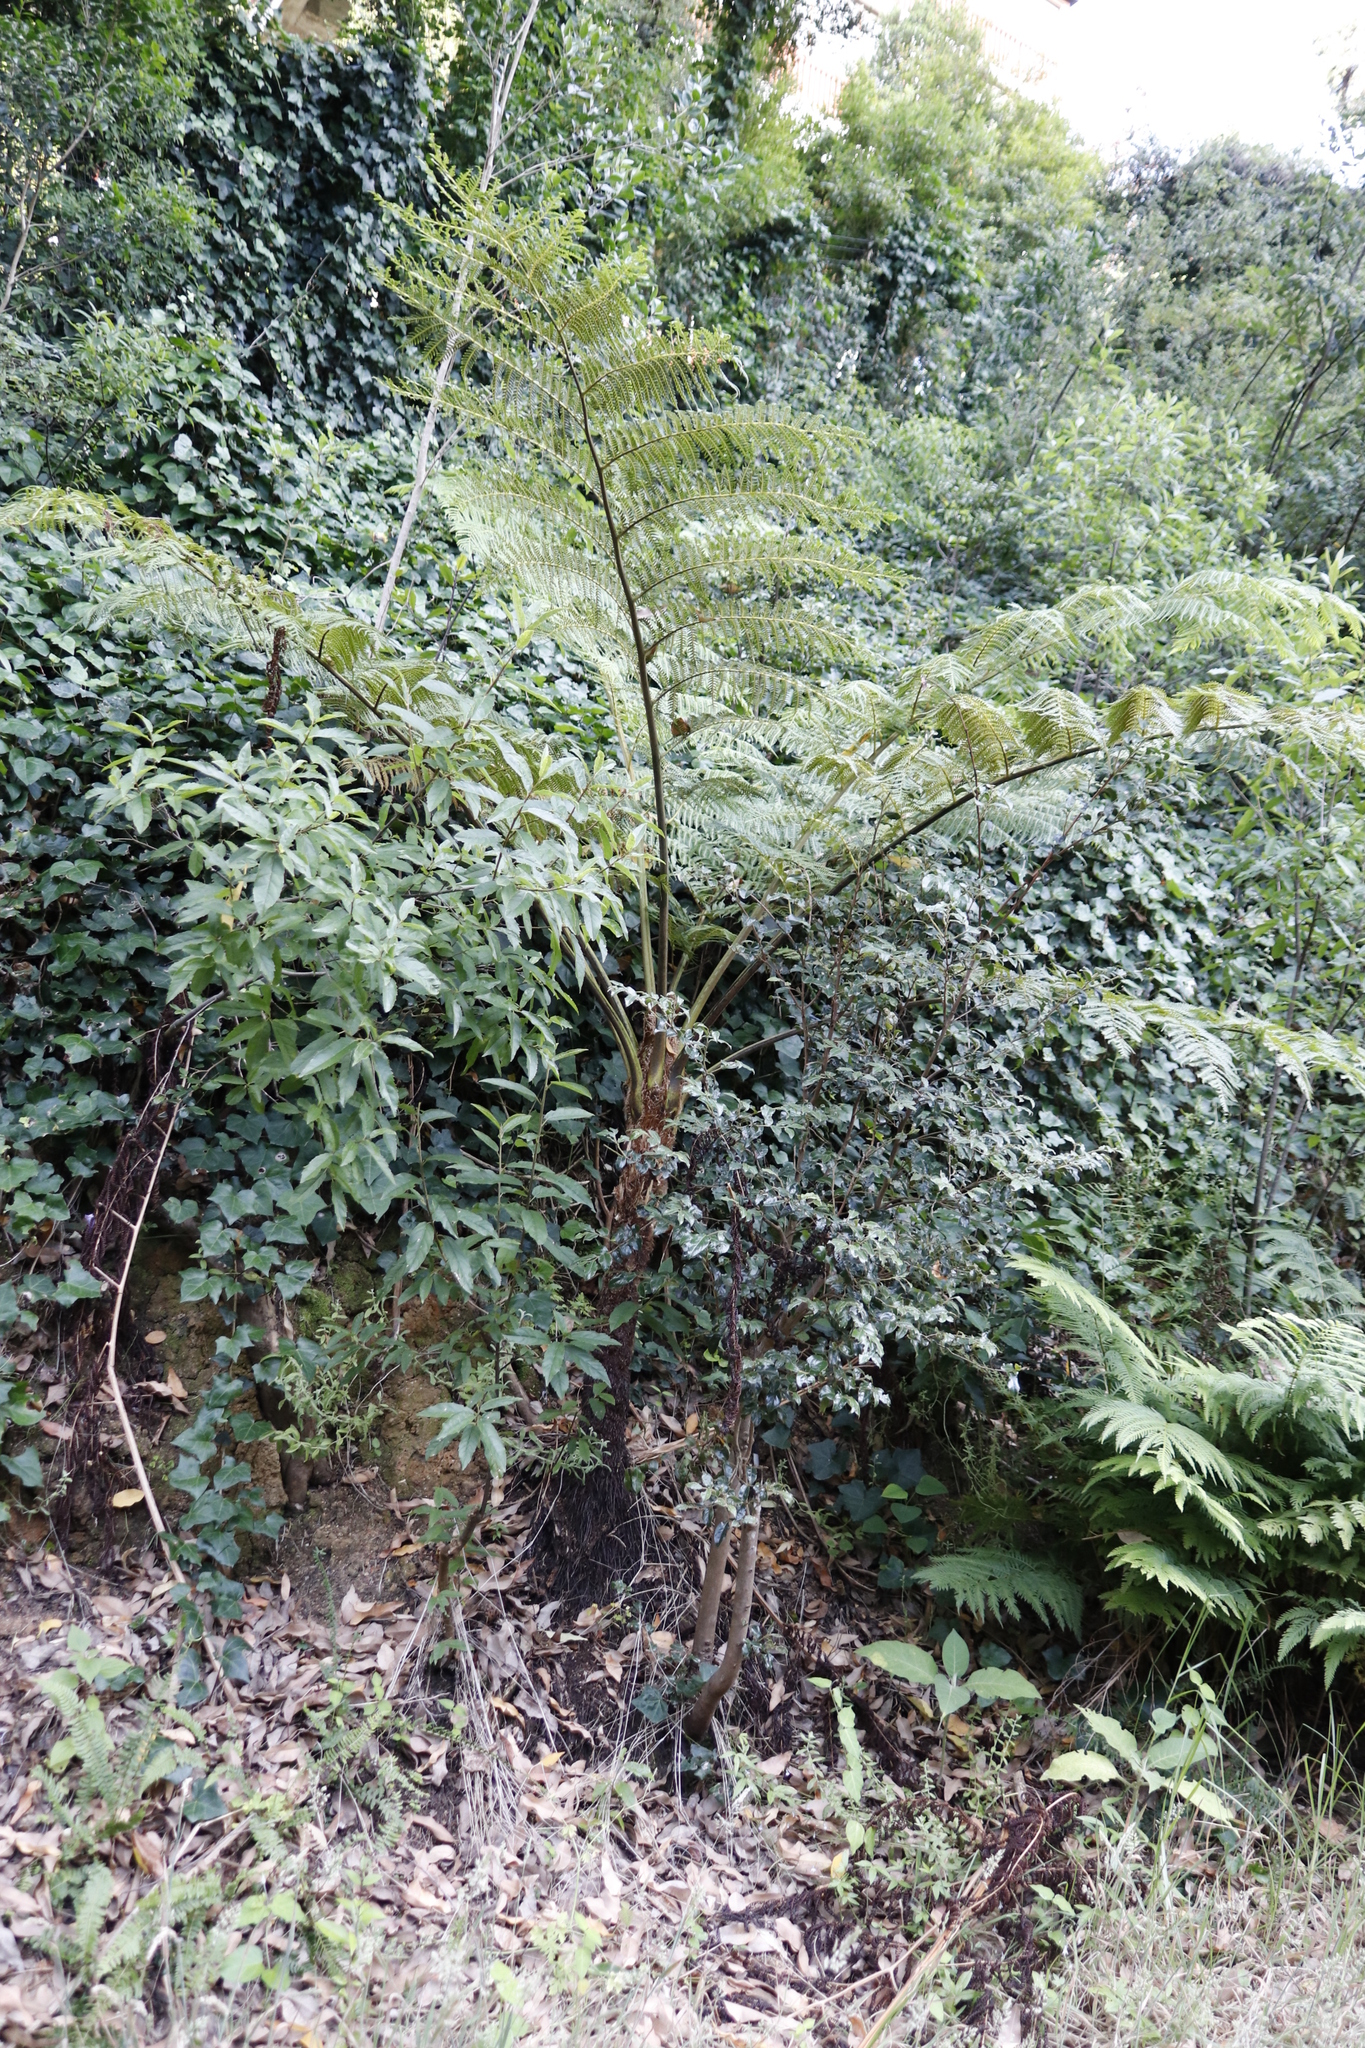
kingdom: Plantae
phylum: Tracheophyta
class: Polypodiopsida
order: Cyatheales
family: Cyatheaceae
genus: Sphaeropteris
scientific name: Sphaeropteris cooperi
